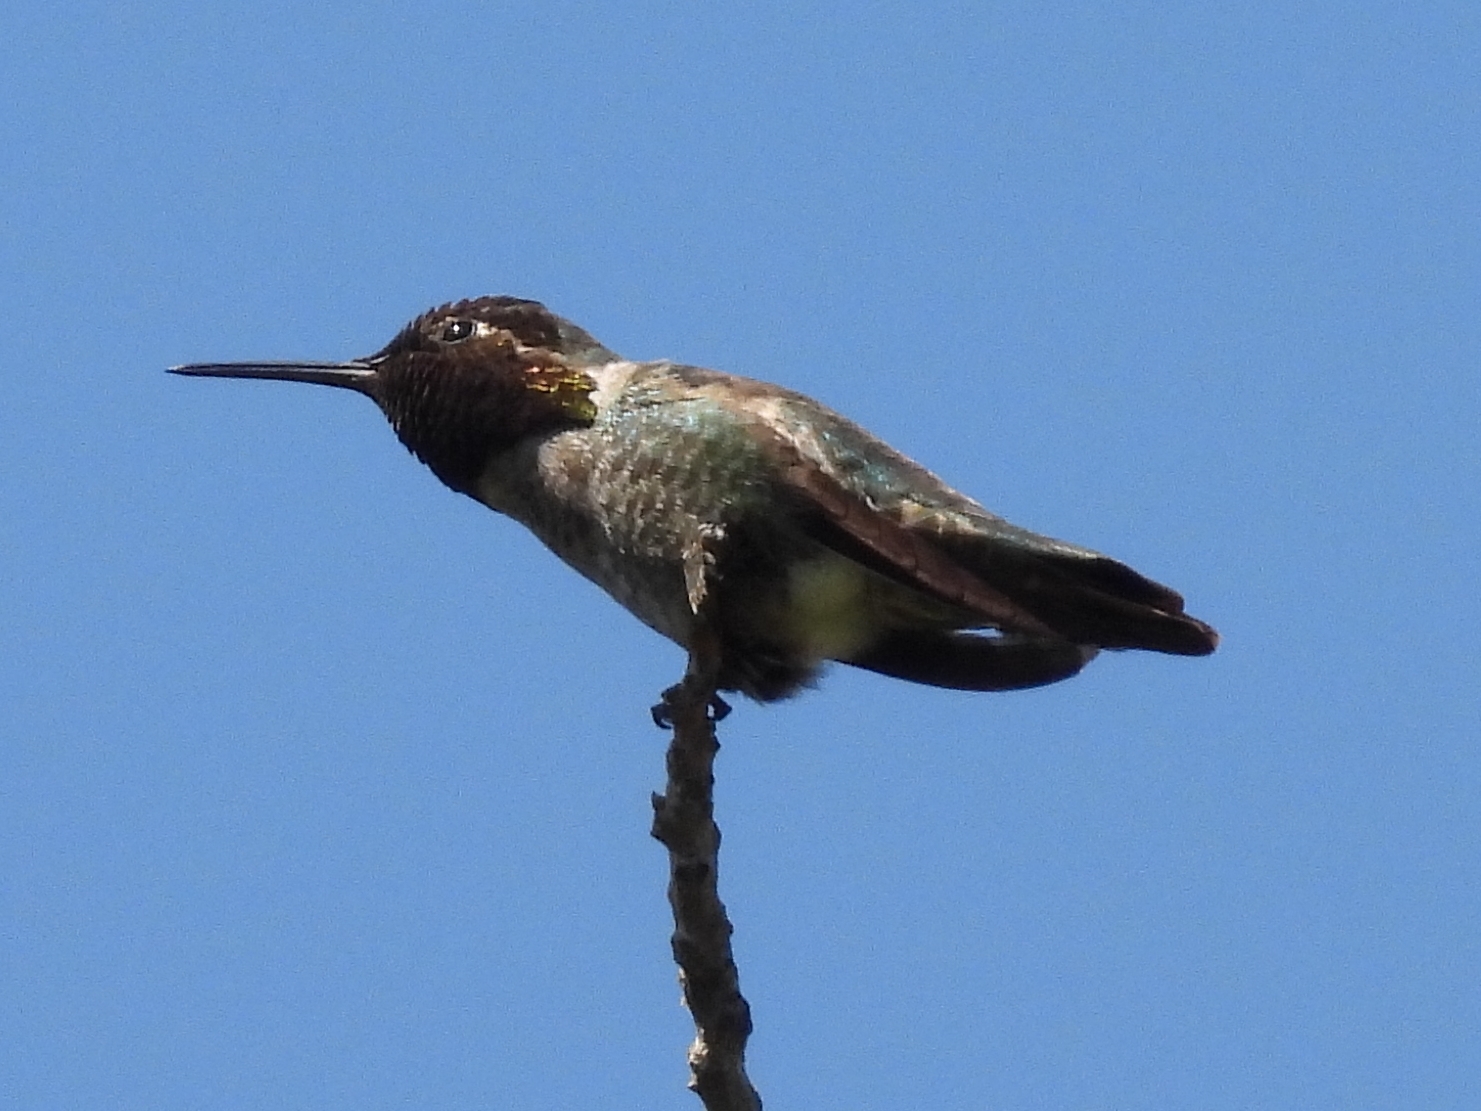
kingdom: Animalia
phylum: Chordata
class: Aves
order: Apodiformes
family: Trochilidae
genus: Calypte
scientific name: Calypte anna
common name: Anna's hummingbird
